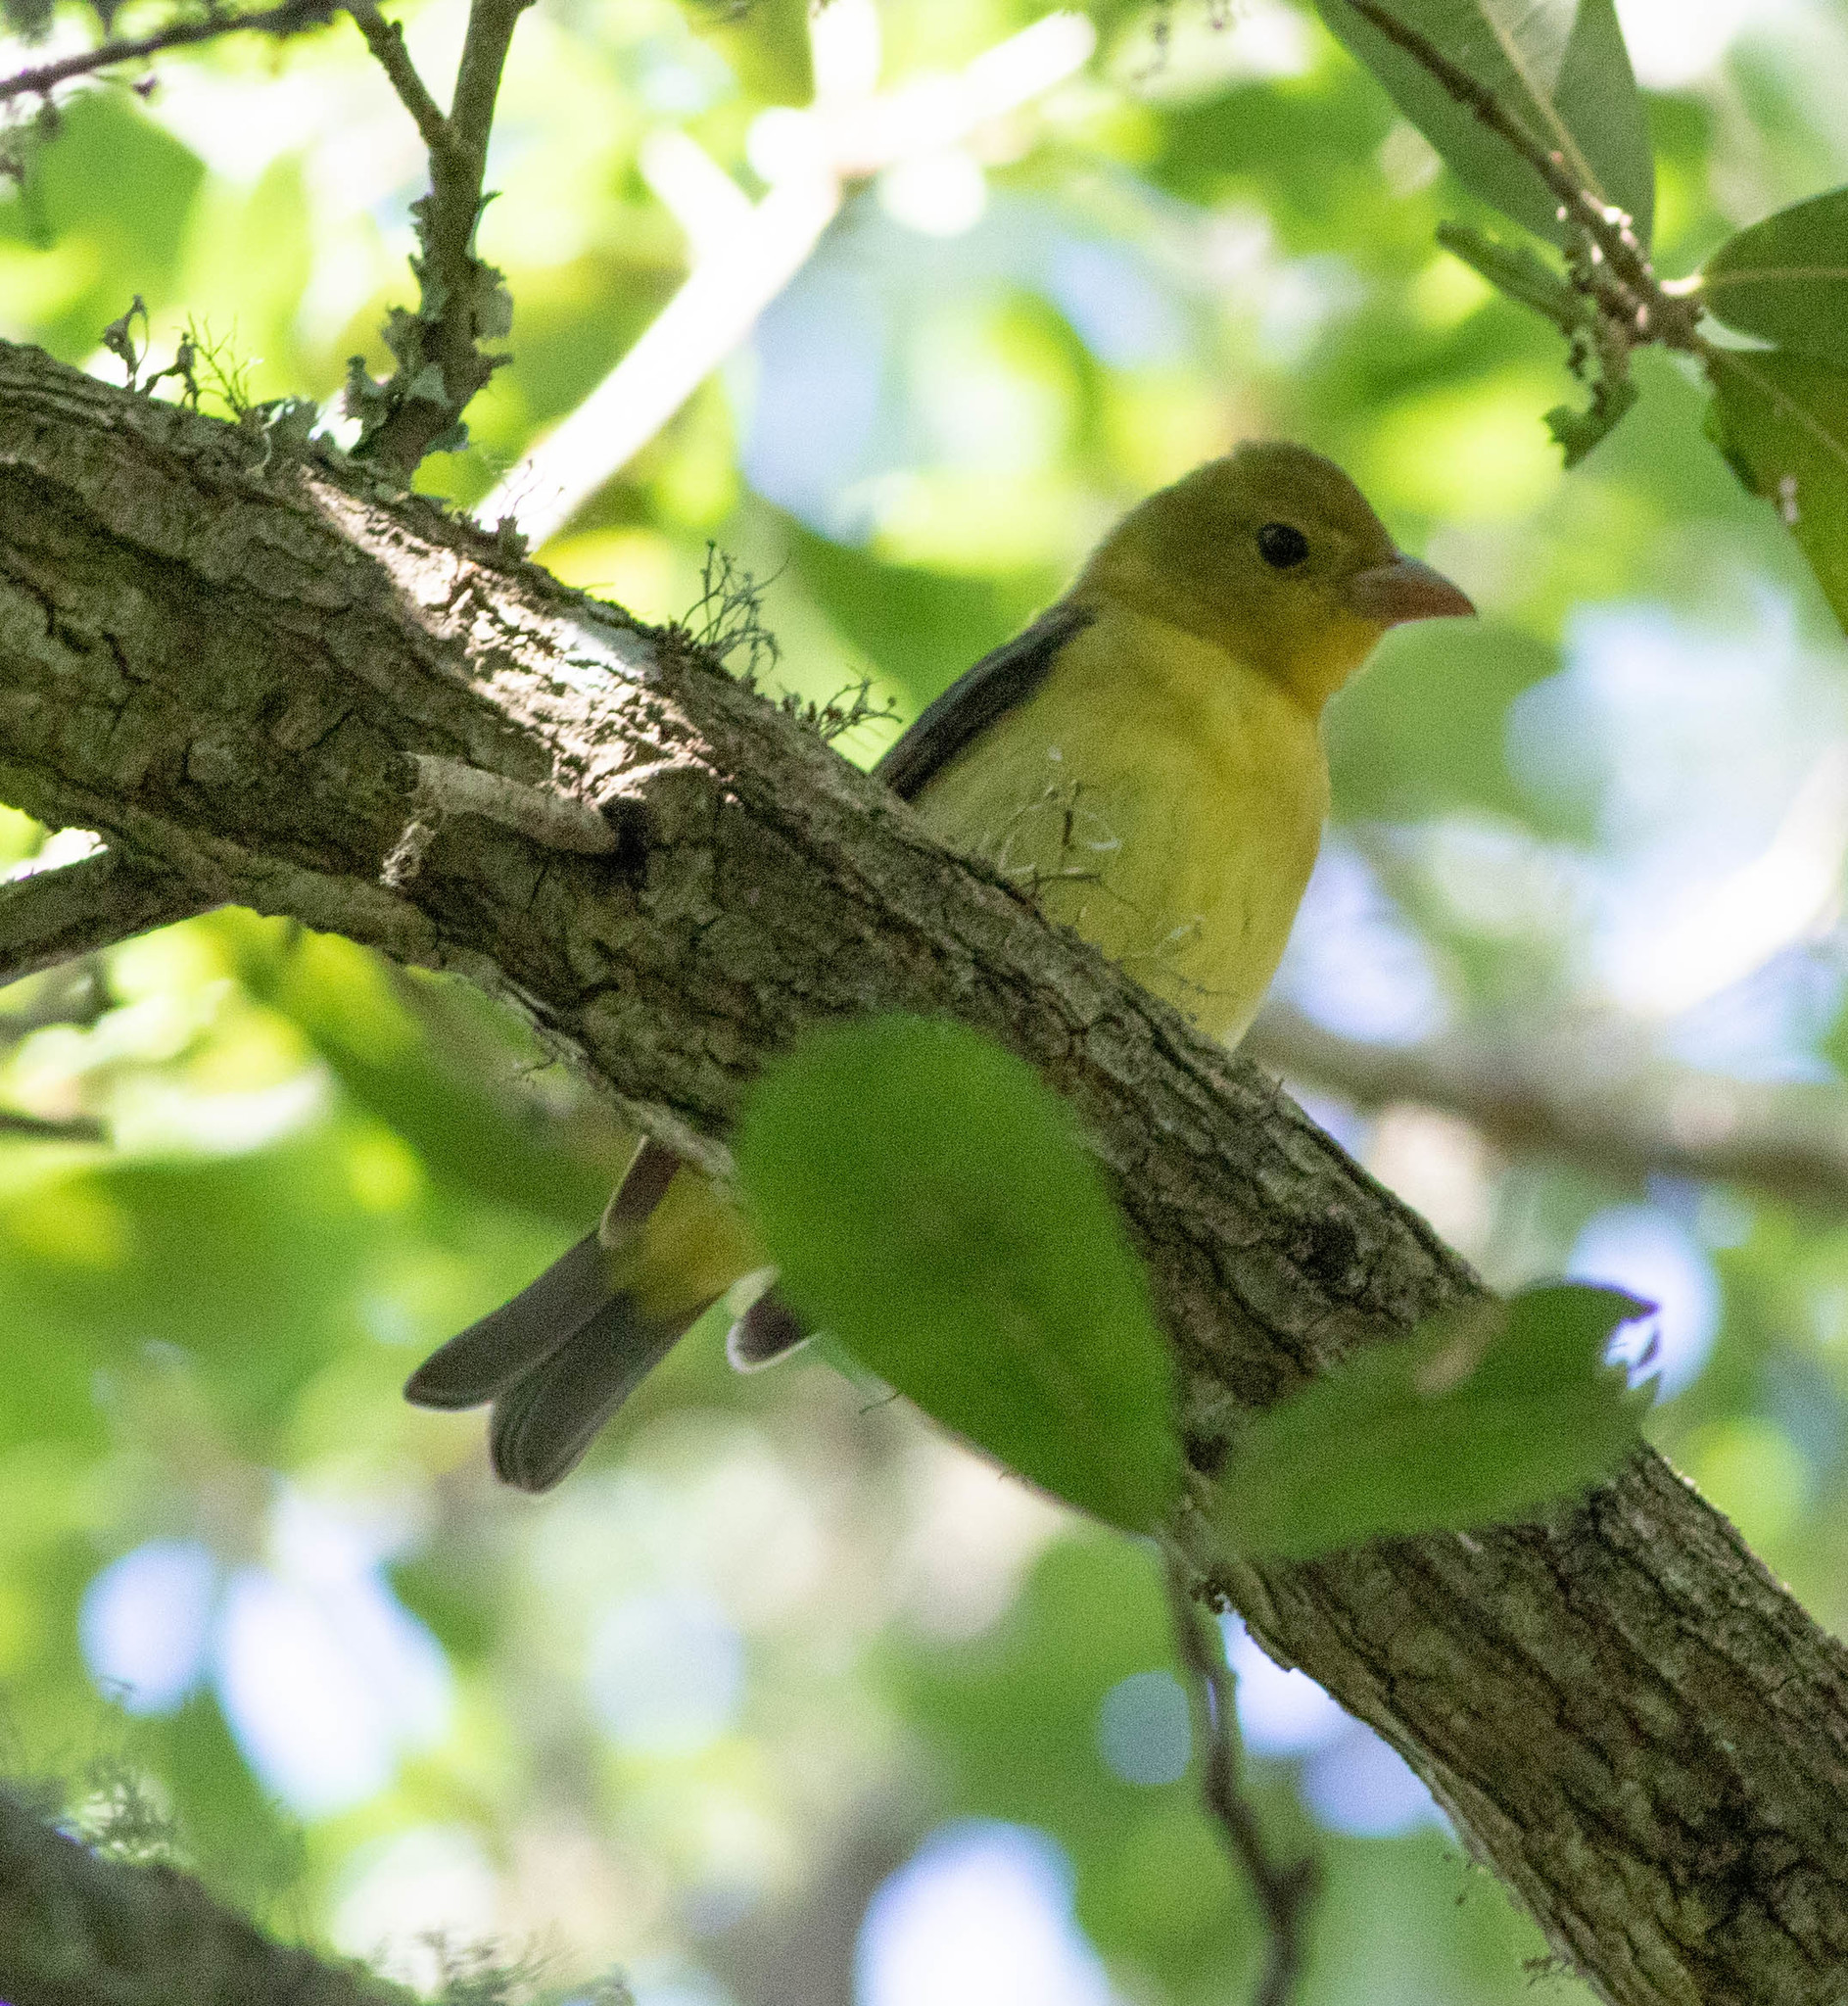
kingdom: Animalia
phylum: Chordata
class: Aves
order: Passeriformes
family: Cardinalidae
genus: Piranga
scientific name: Piranga olivacea
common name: Scarlet tanager
